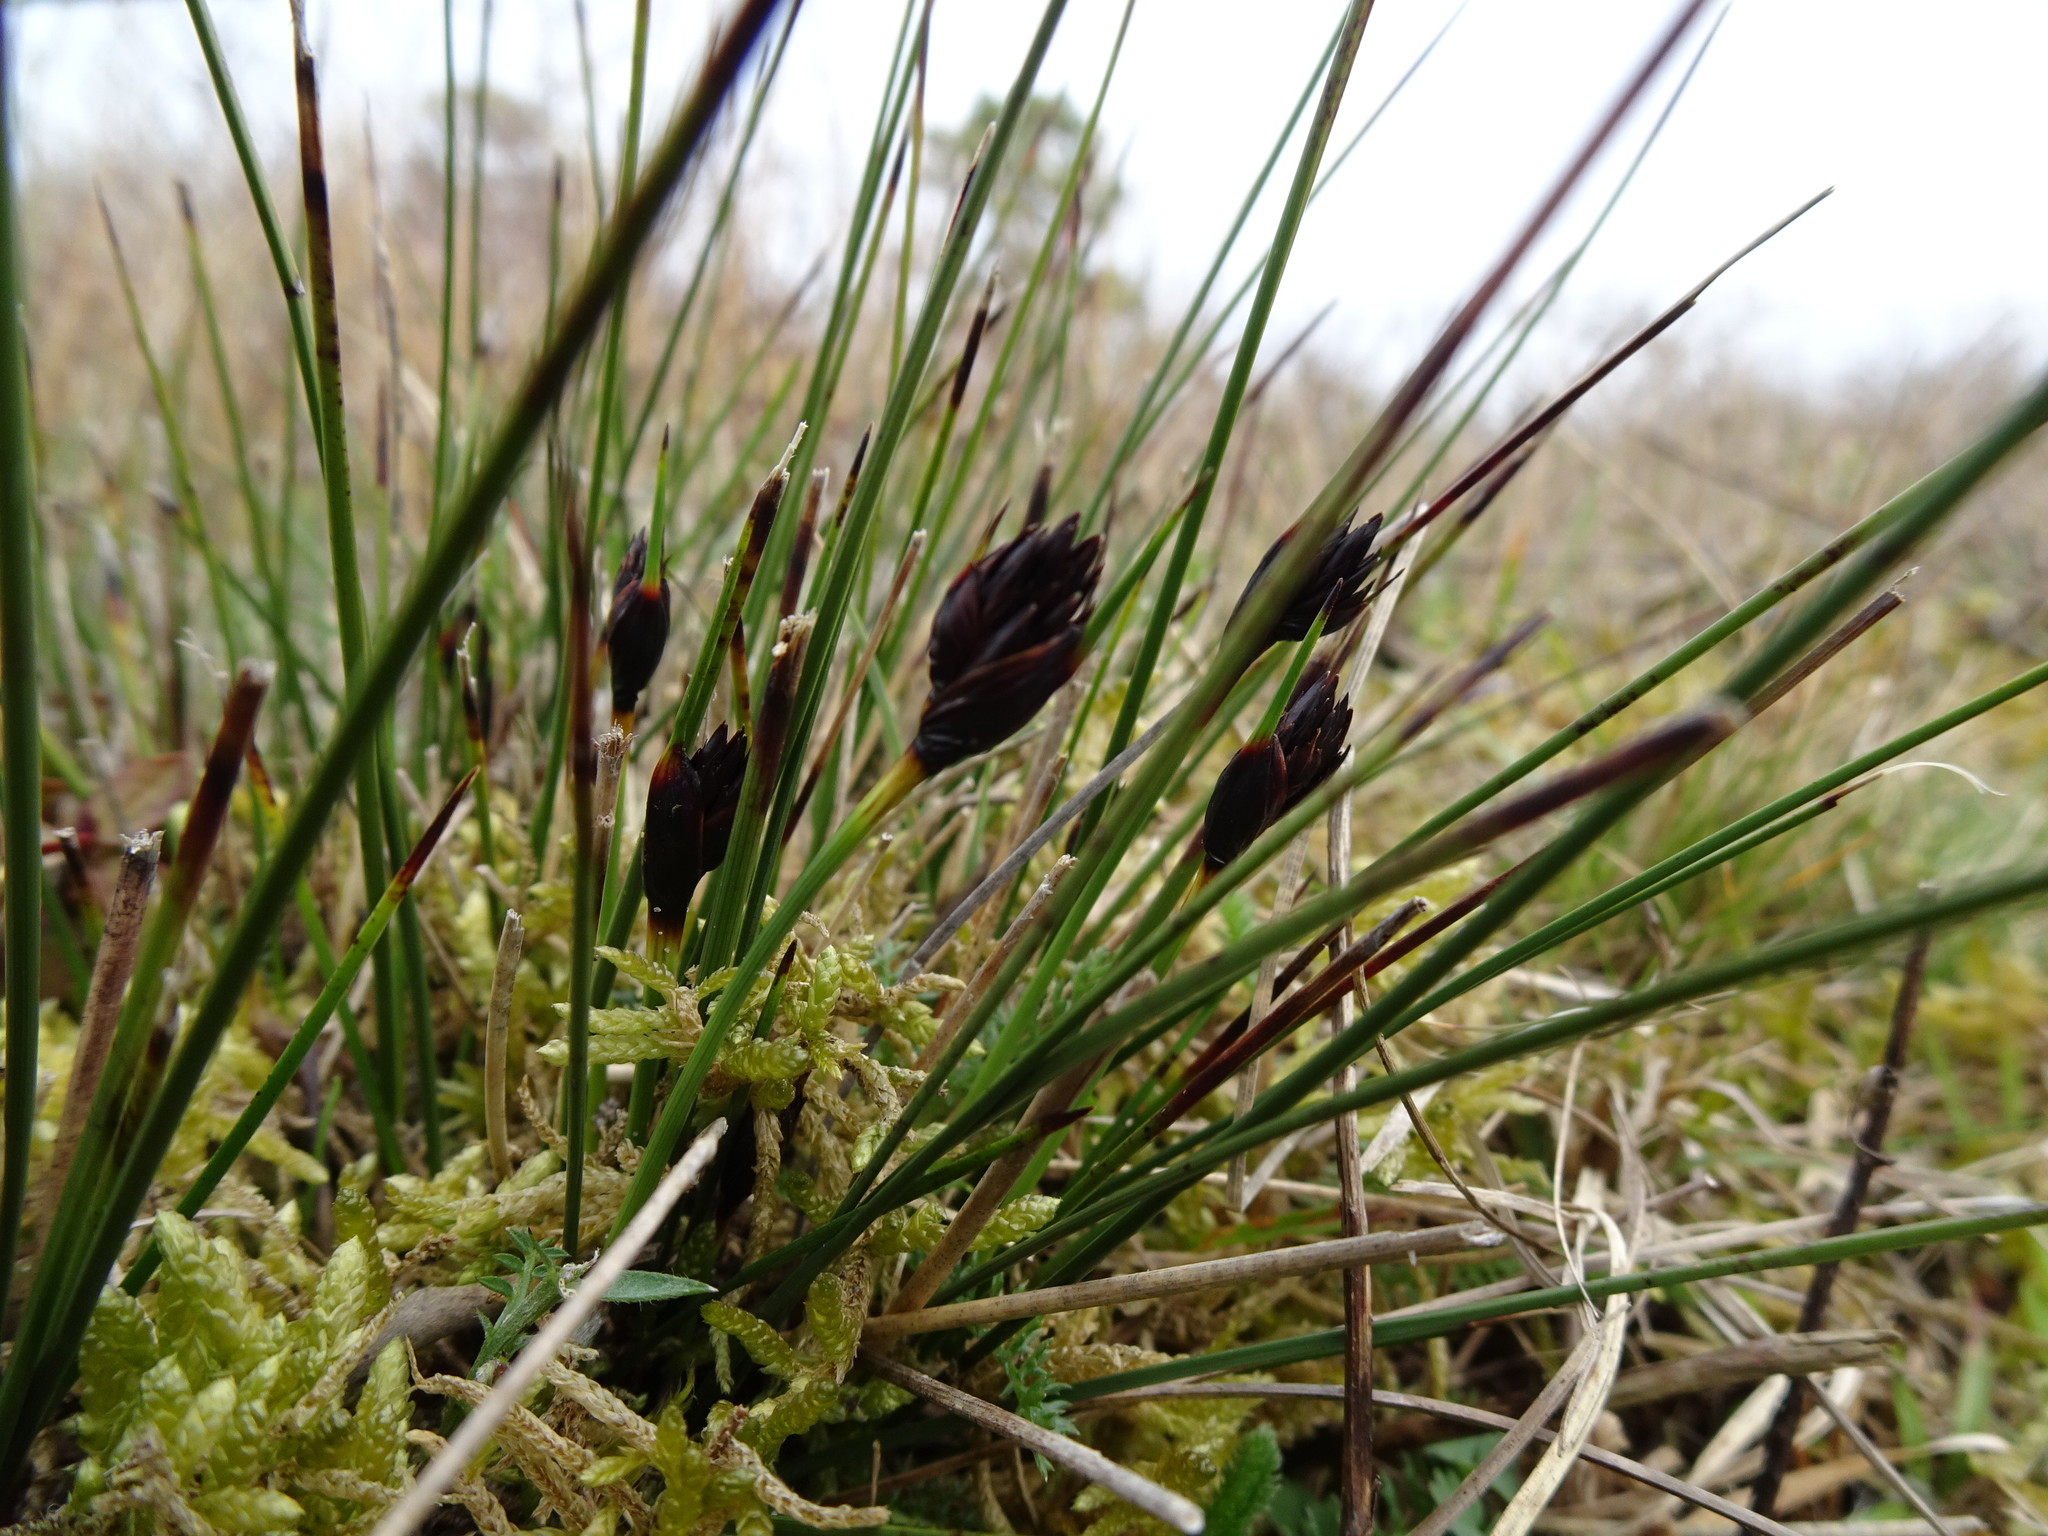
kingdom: Plantae
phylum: Tracheophyta
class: Liliopsida
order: Poales
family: Cyperaceae
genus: Schoenus
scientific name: Schoenus nigricans
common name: Black bog-rush
